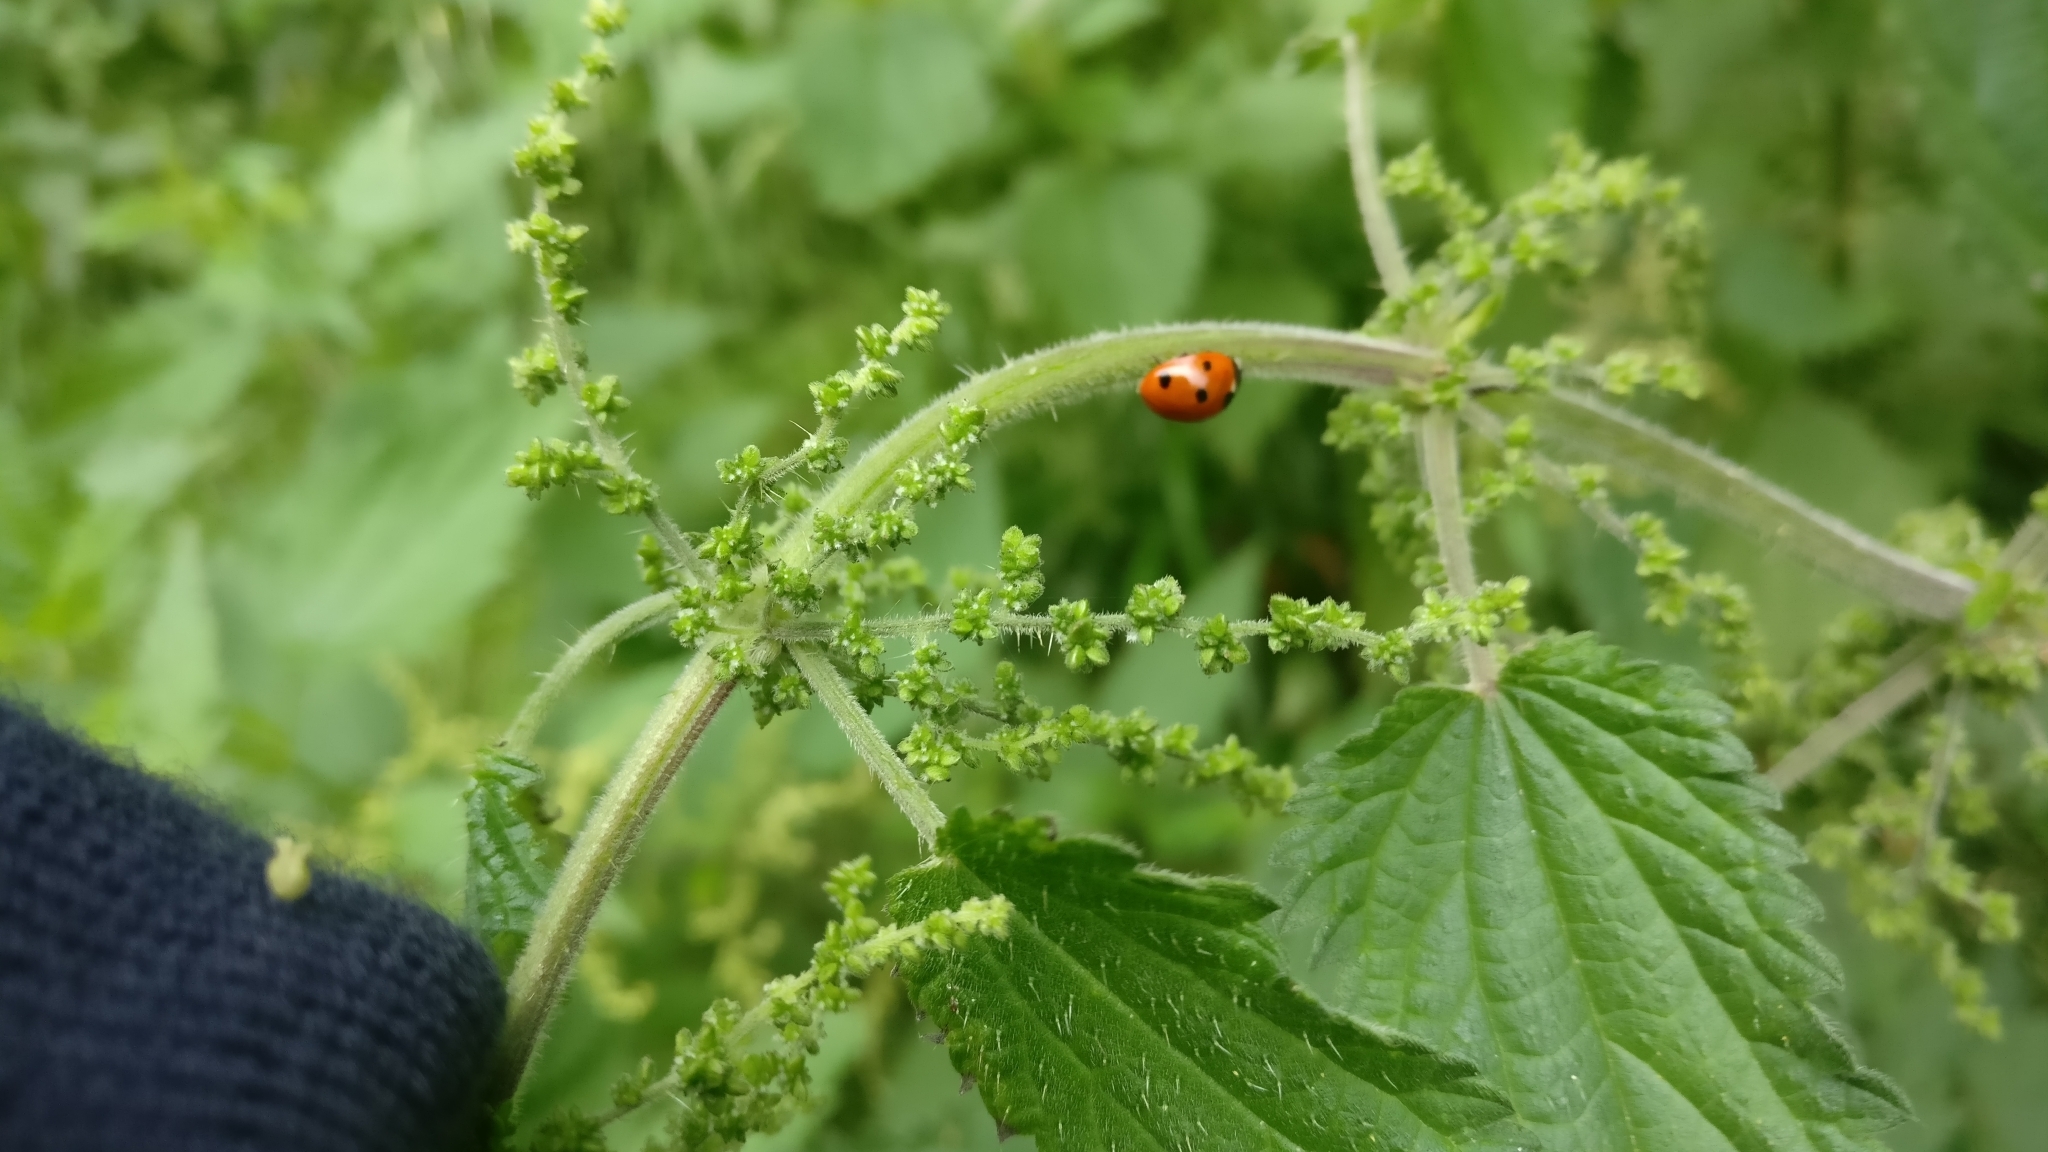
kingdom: Animalia
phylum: Arthropoda
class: Insecta
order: Coleoptera
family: Coccinellidae
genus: Coccinella
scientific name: Coccinella septempunctata
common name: Sevenspotted lady beetle
